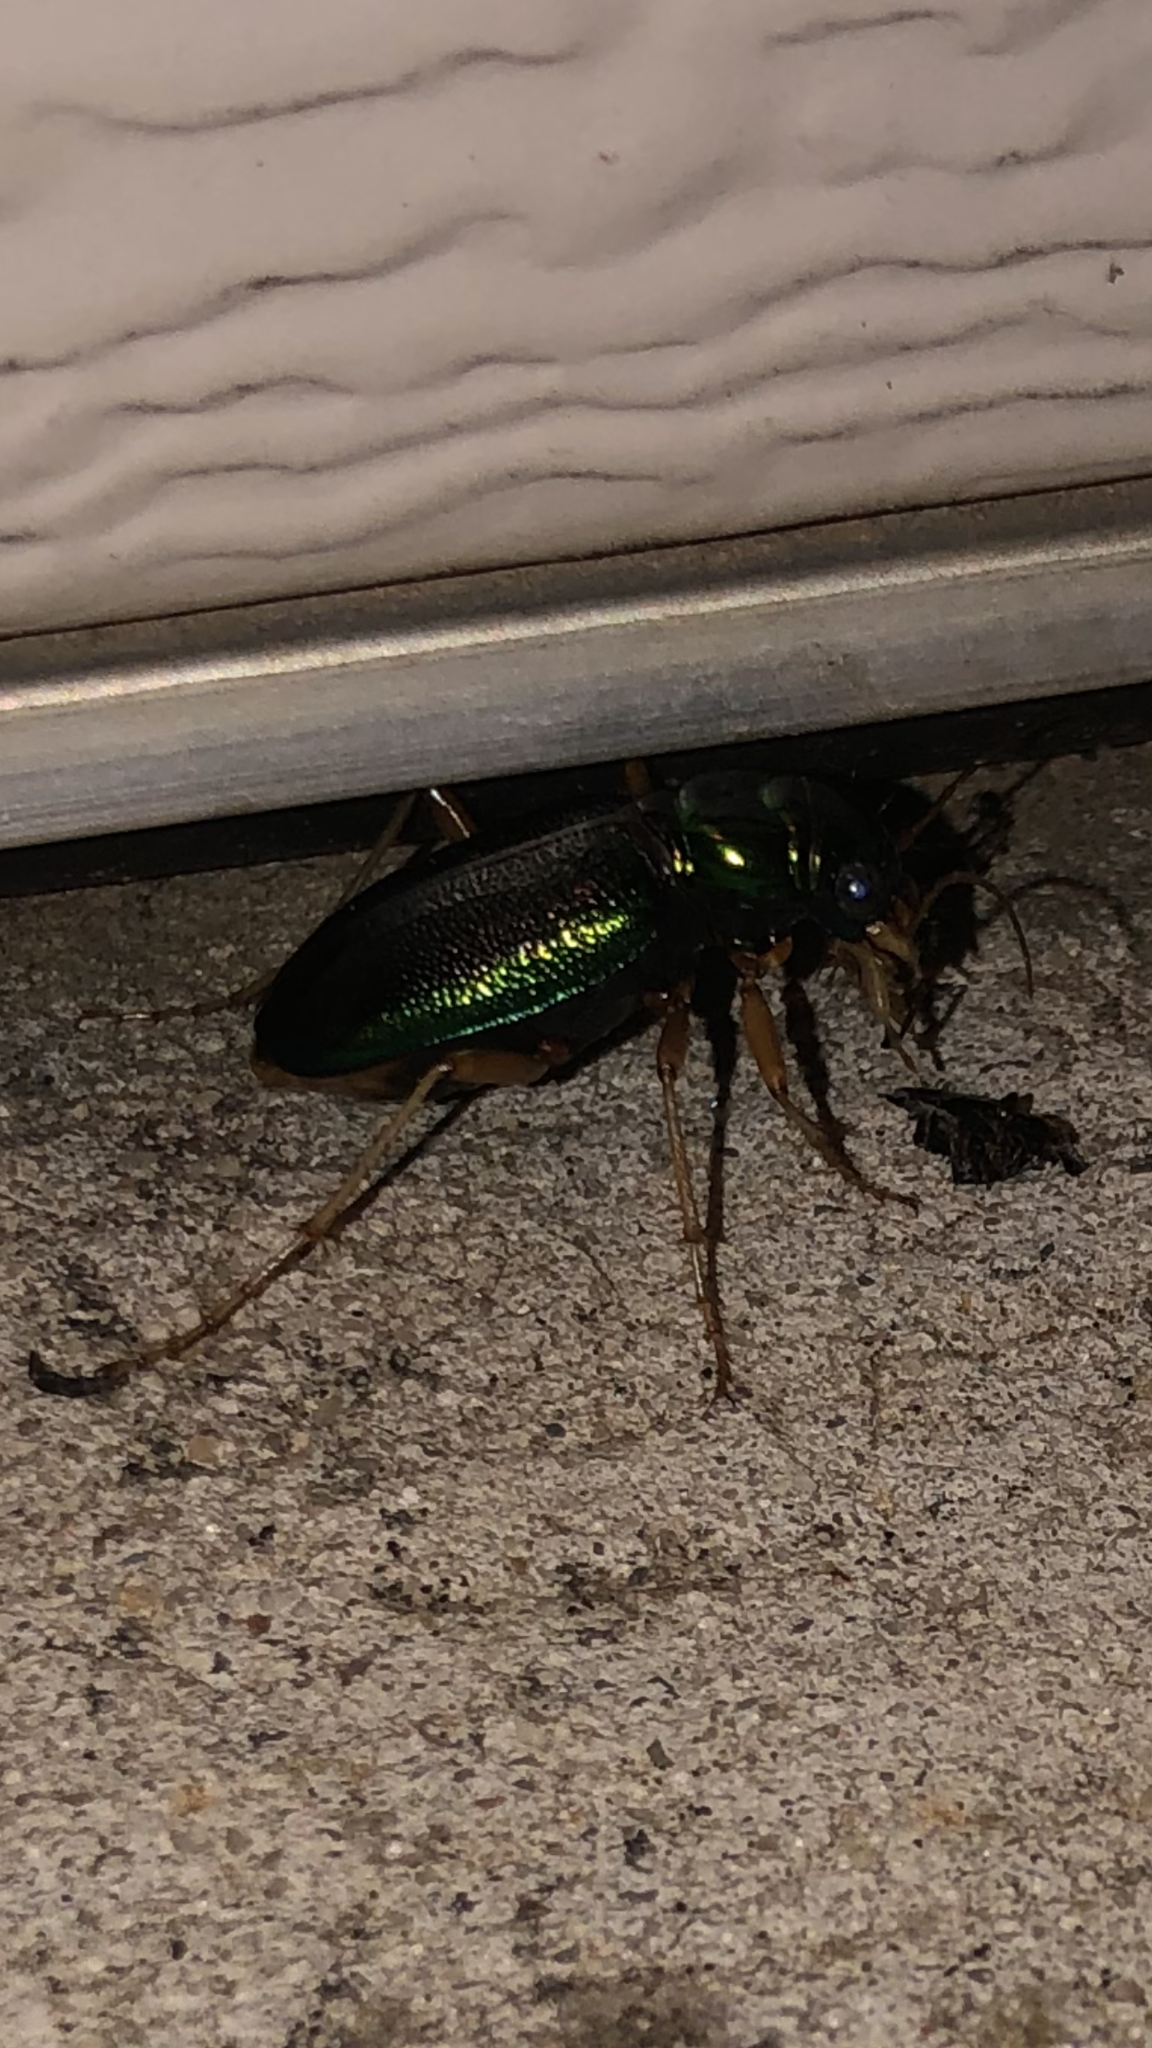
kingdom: Animalia
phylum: Arthropoda
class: Insecta
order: Coleoptera
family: Carabidae
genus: Tetracha
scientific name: Tetracha virginica
